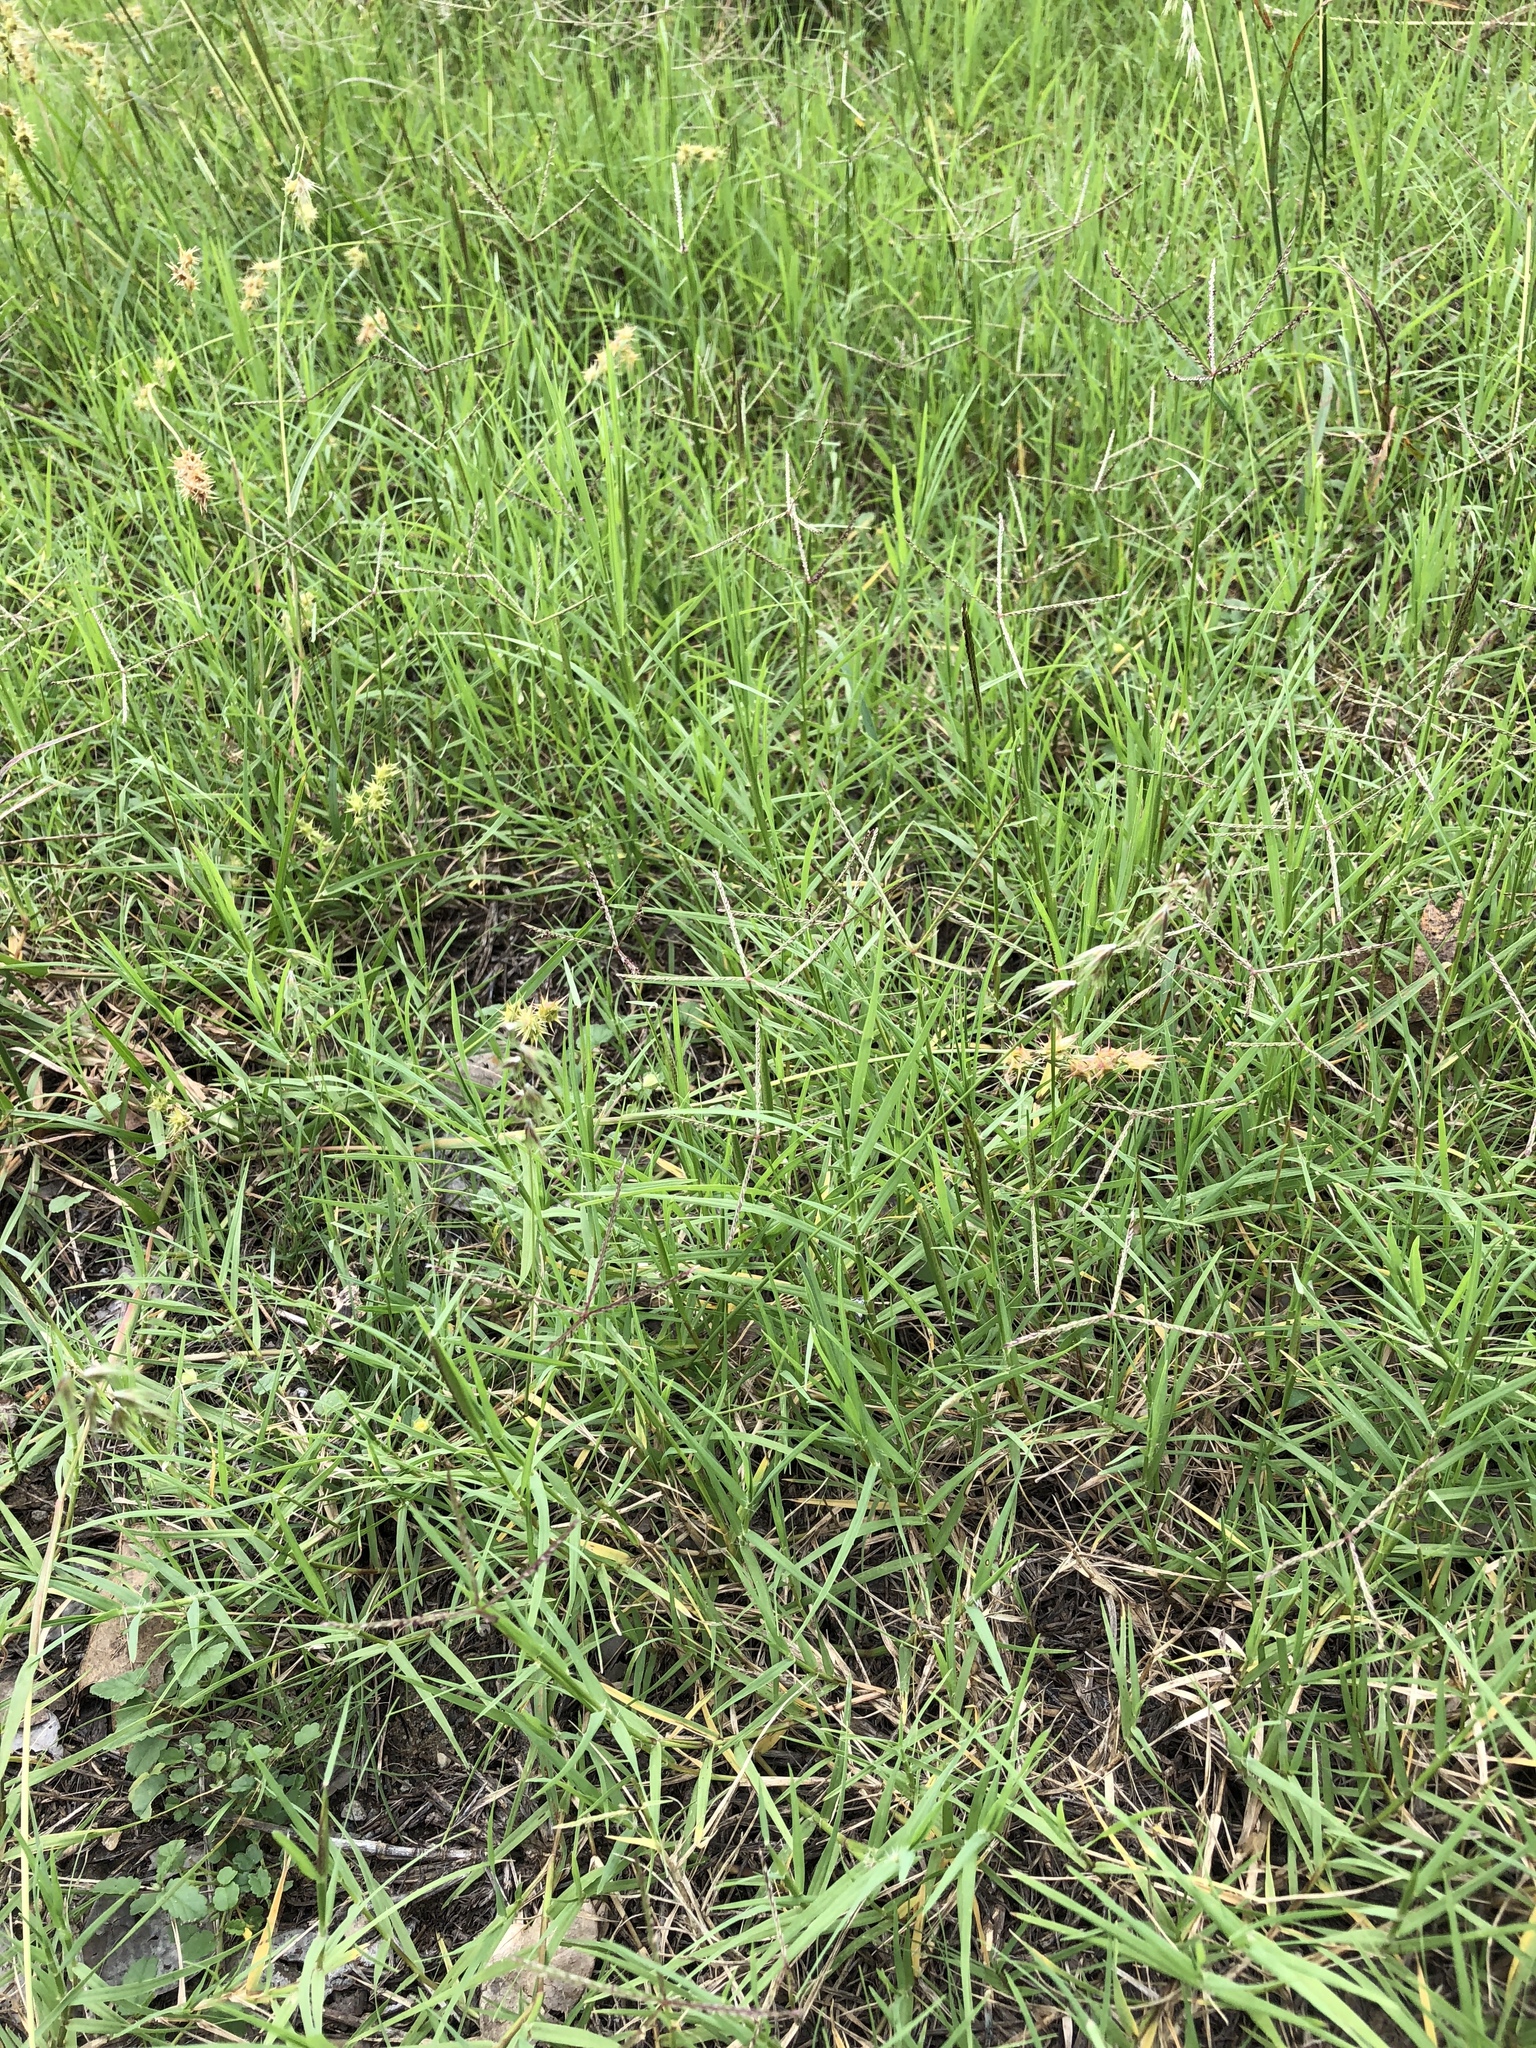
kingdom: Plantae
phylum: Tracheophyta
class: Liliopsida
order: Poales
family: Poaceae
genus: Bouteloua
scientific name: Bouteloua rigidiseta
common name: Texas grama
